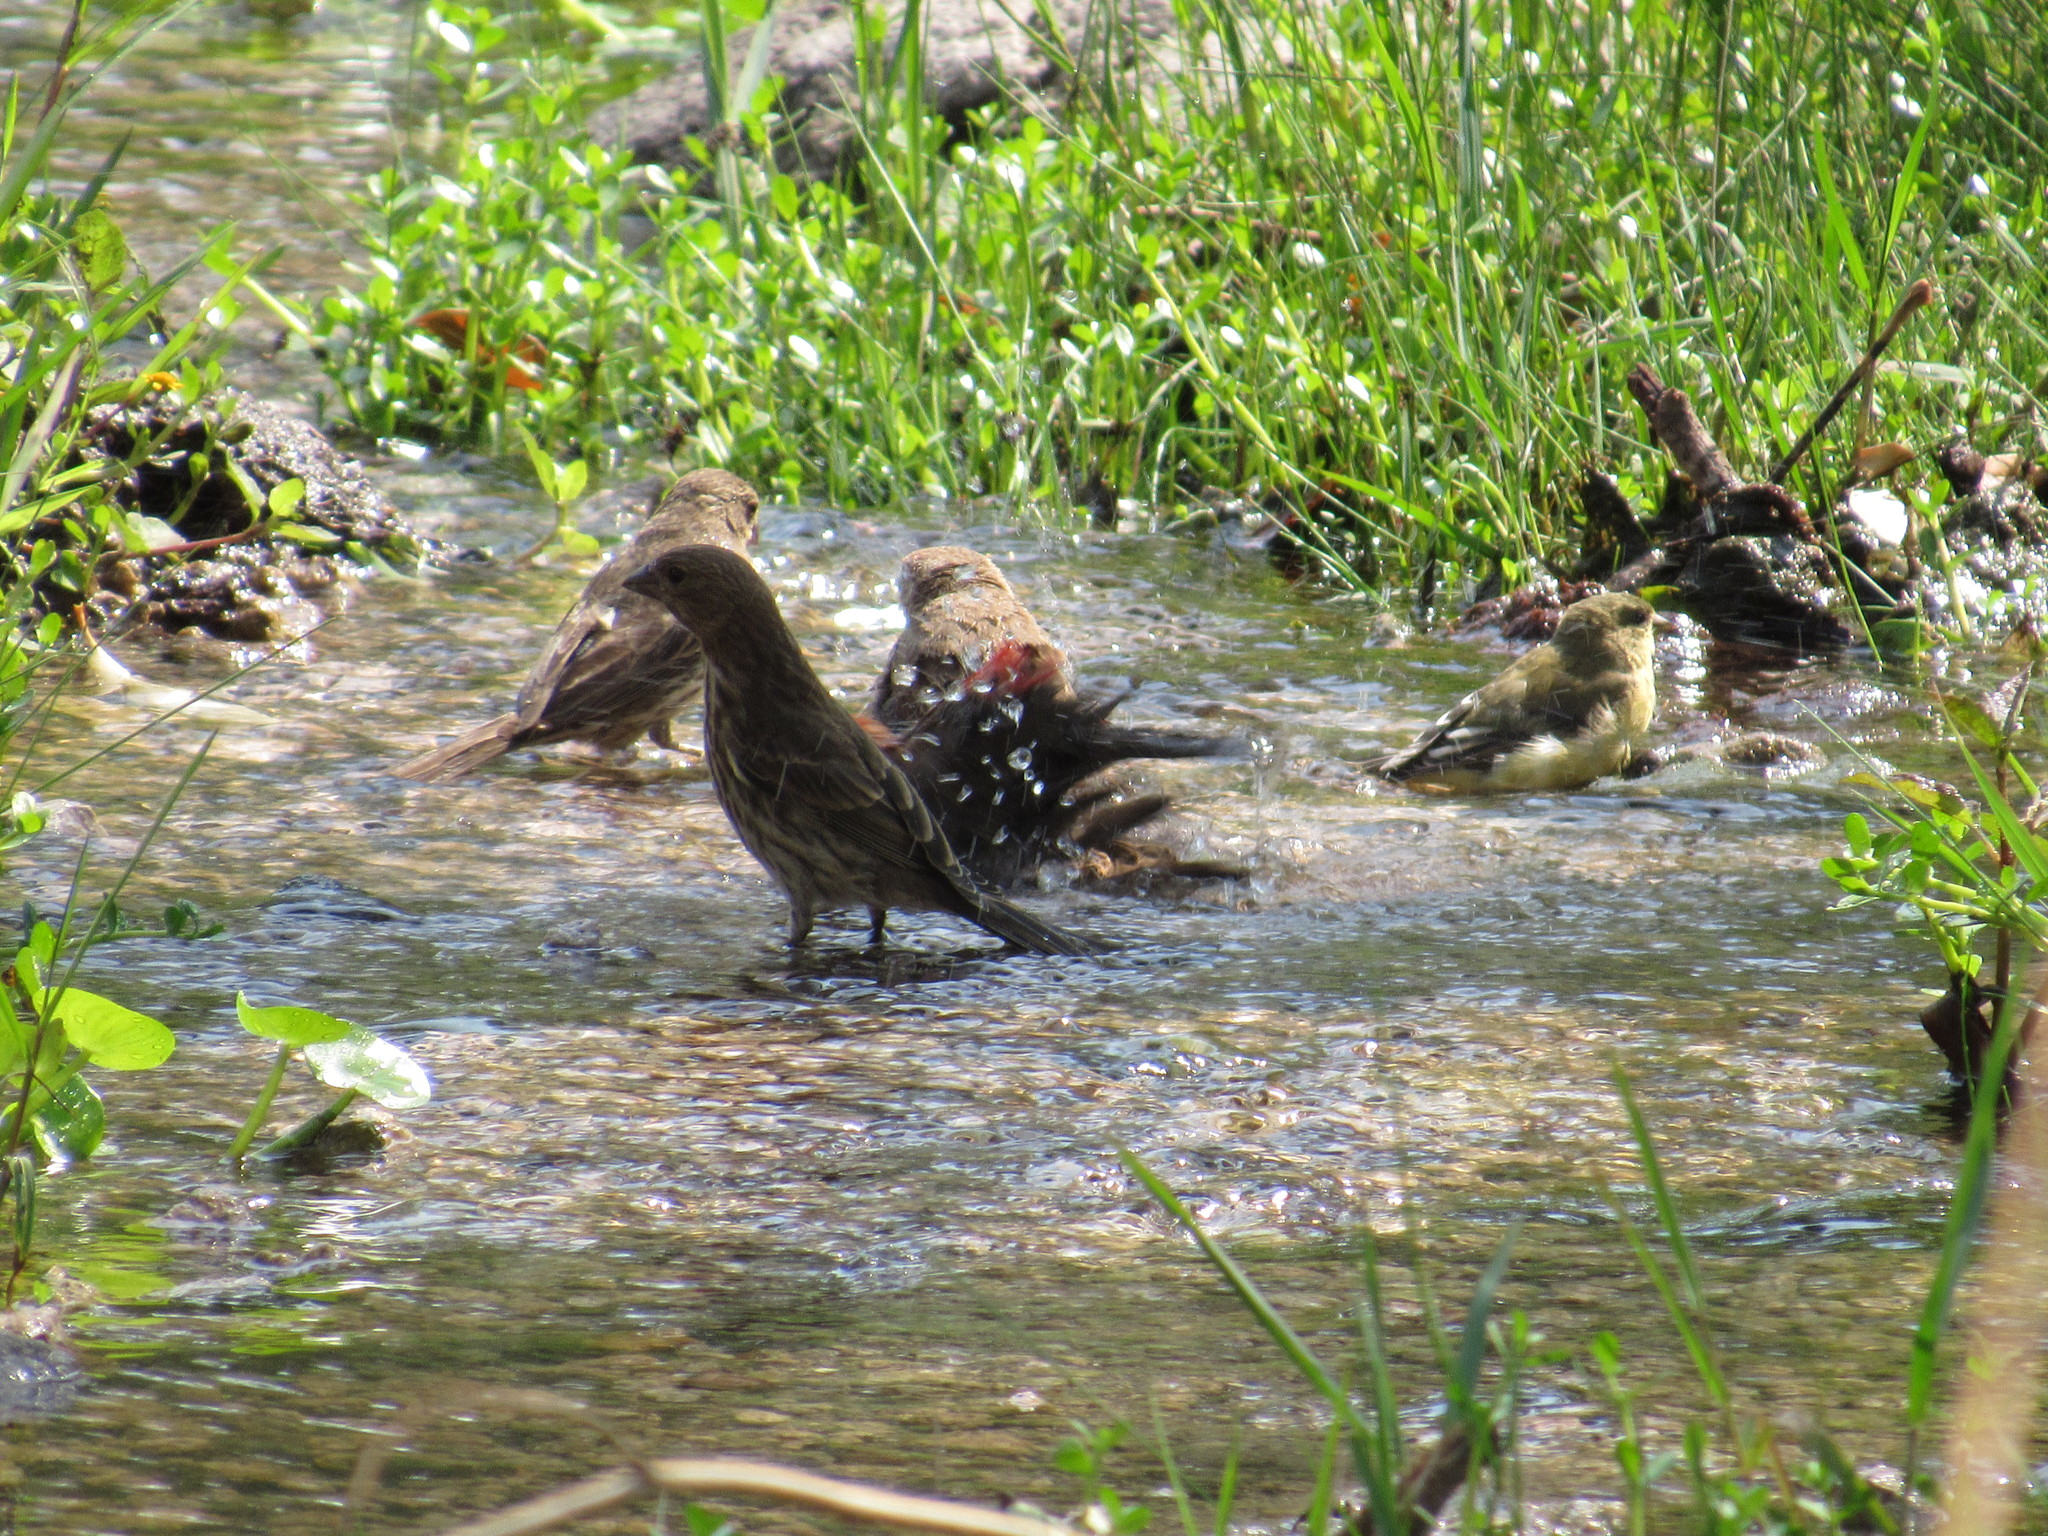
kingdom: Animalia
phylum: Chordata
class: Aves
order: Passeriformes
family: Fringillidae
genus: Spinus
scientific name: Spinus psaltria
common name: Lesser goldfinch
